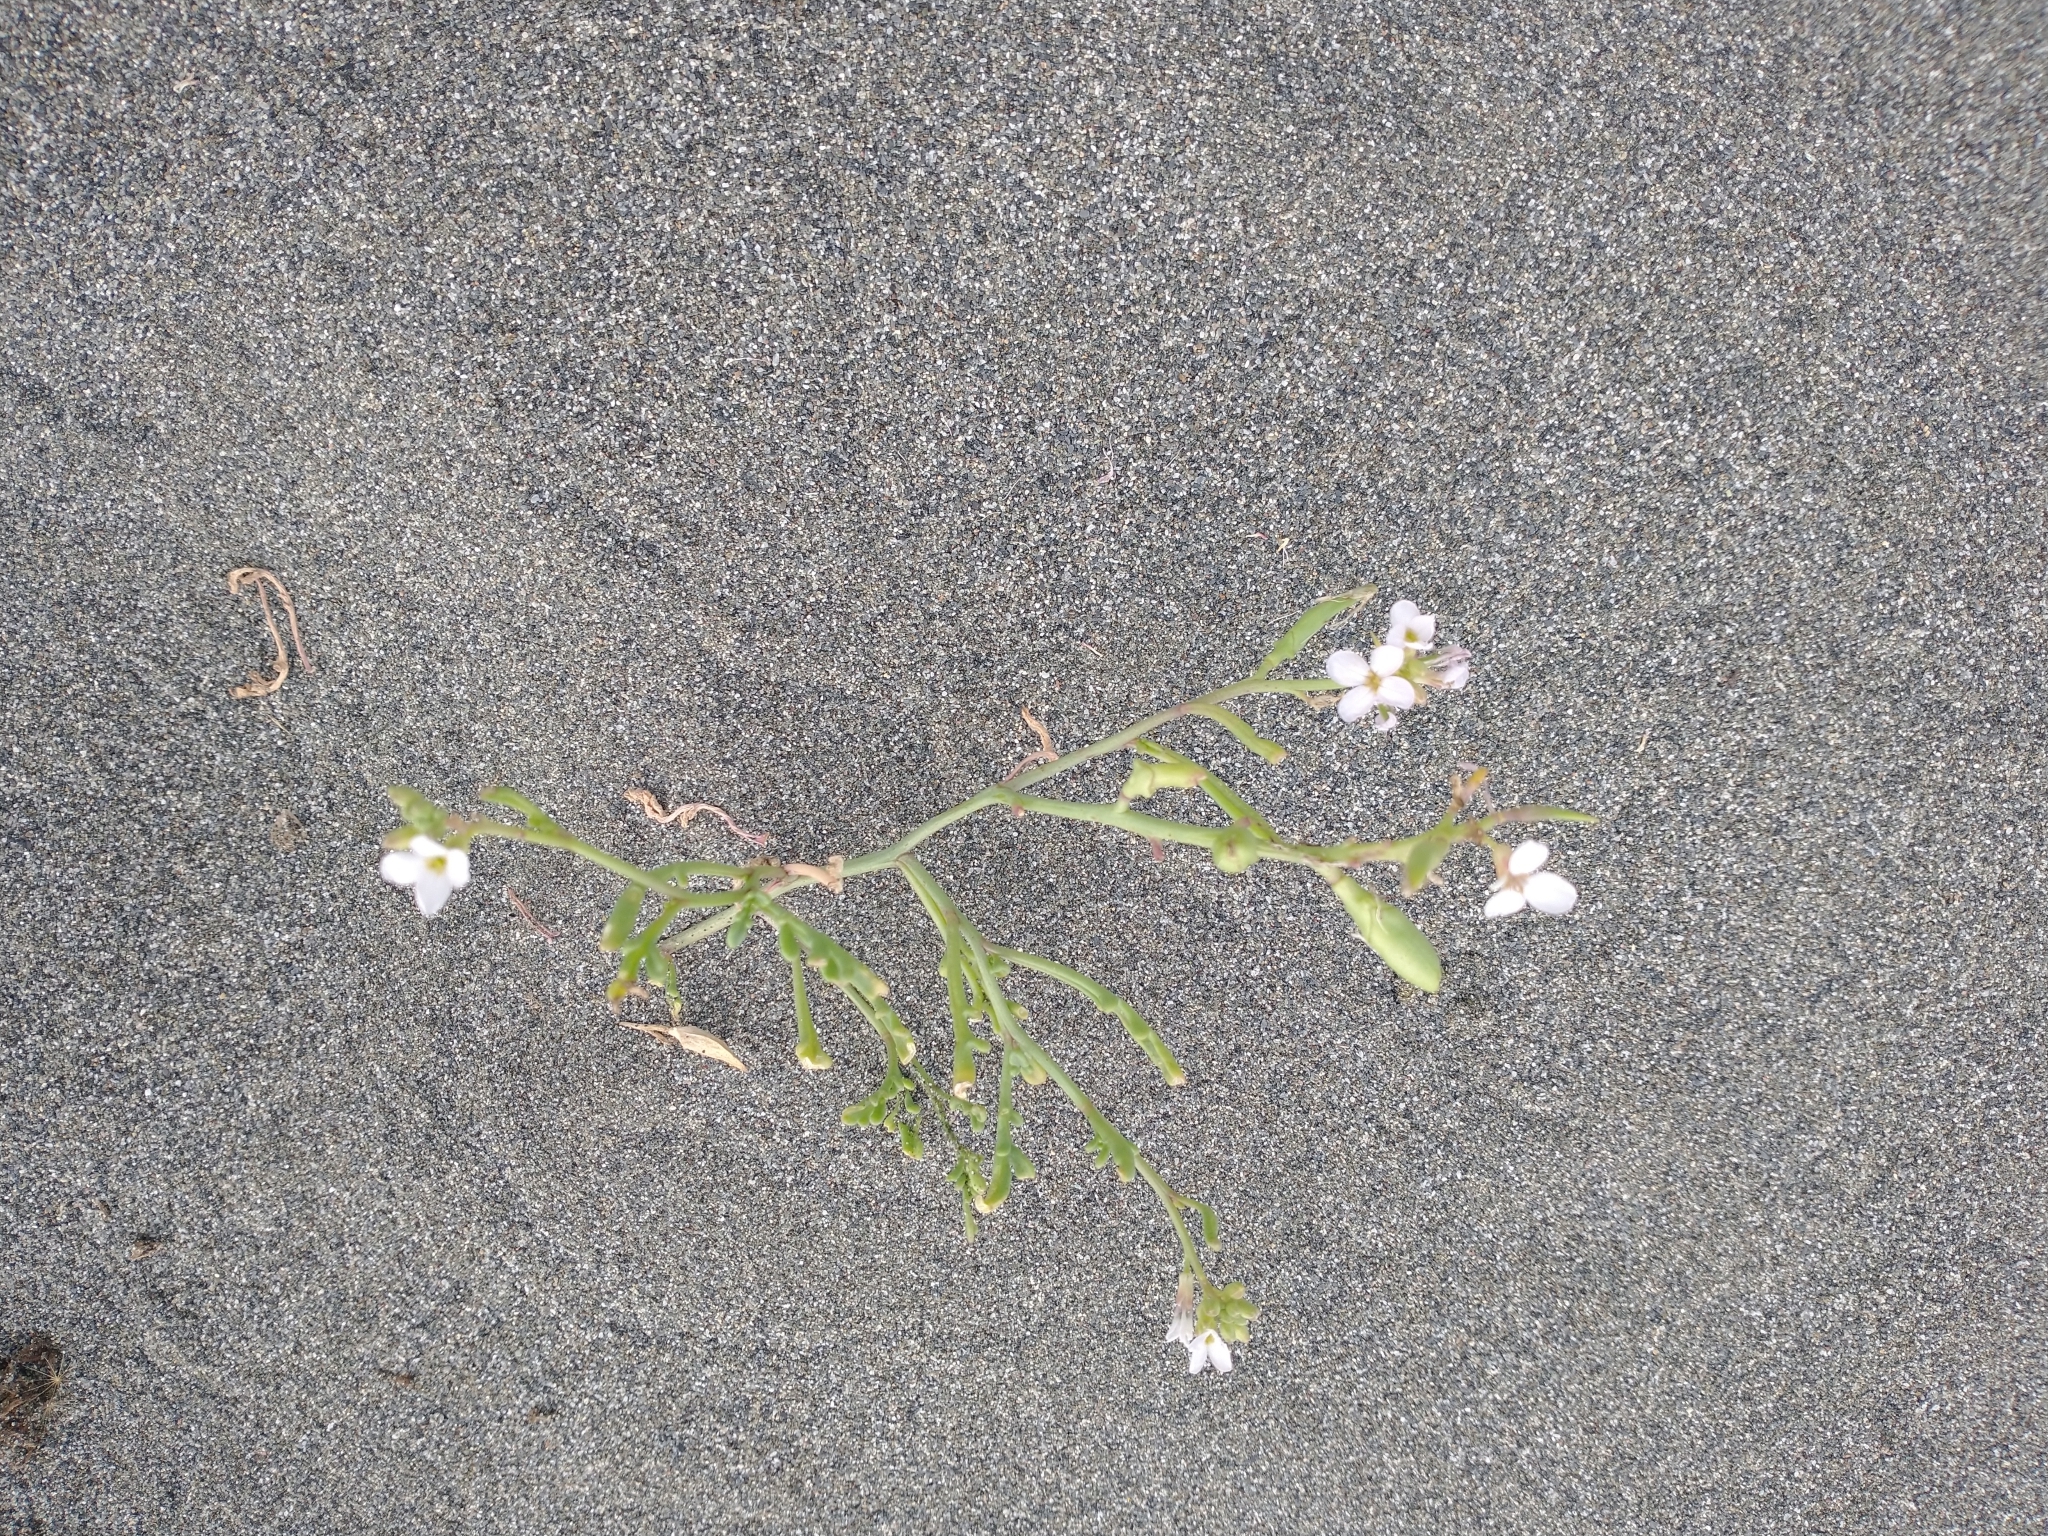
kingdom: Plantae
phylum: Tracheophyta
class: Magnoliopsida
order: Brassicales
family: Brassicaceae
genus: Cakile
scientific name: Cakile maritima
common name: Sea rocket
